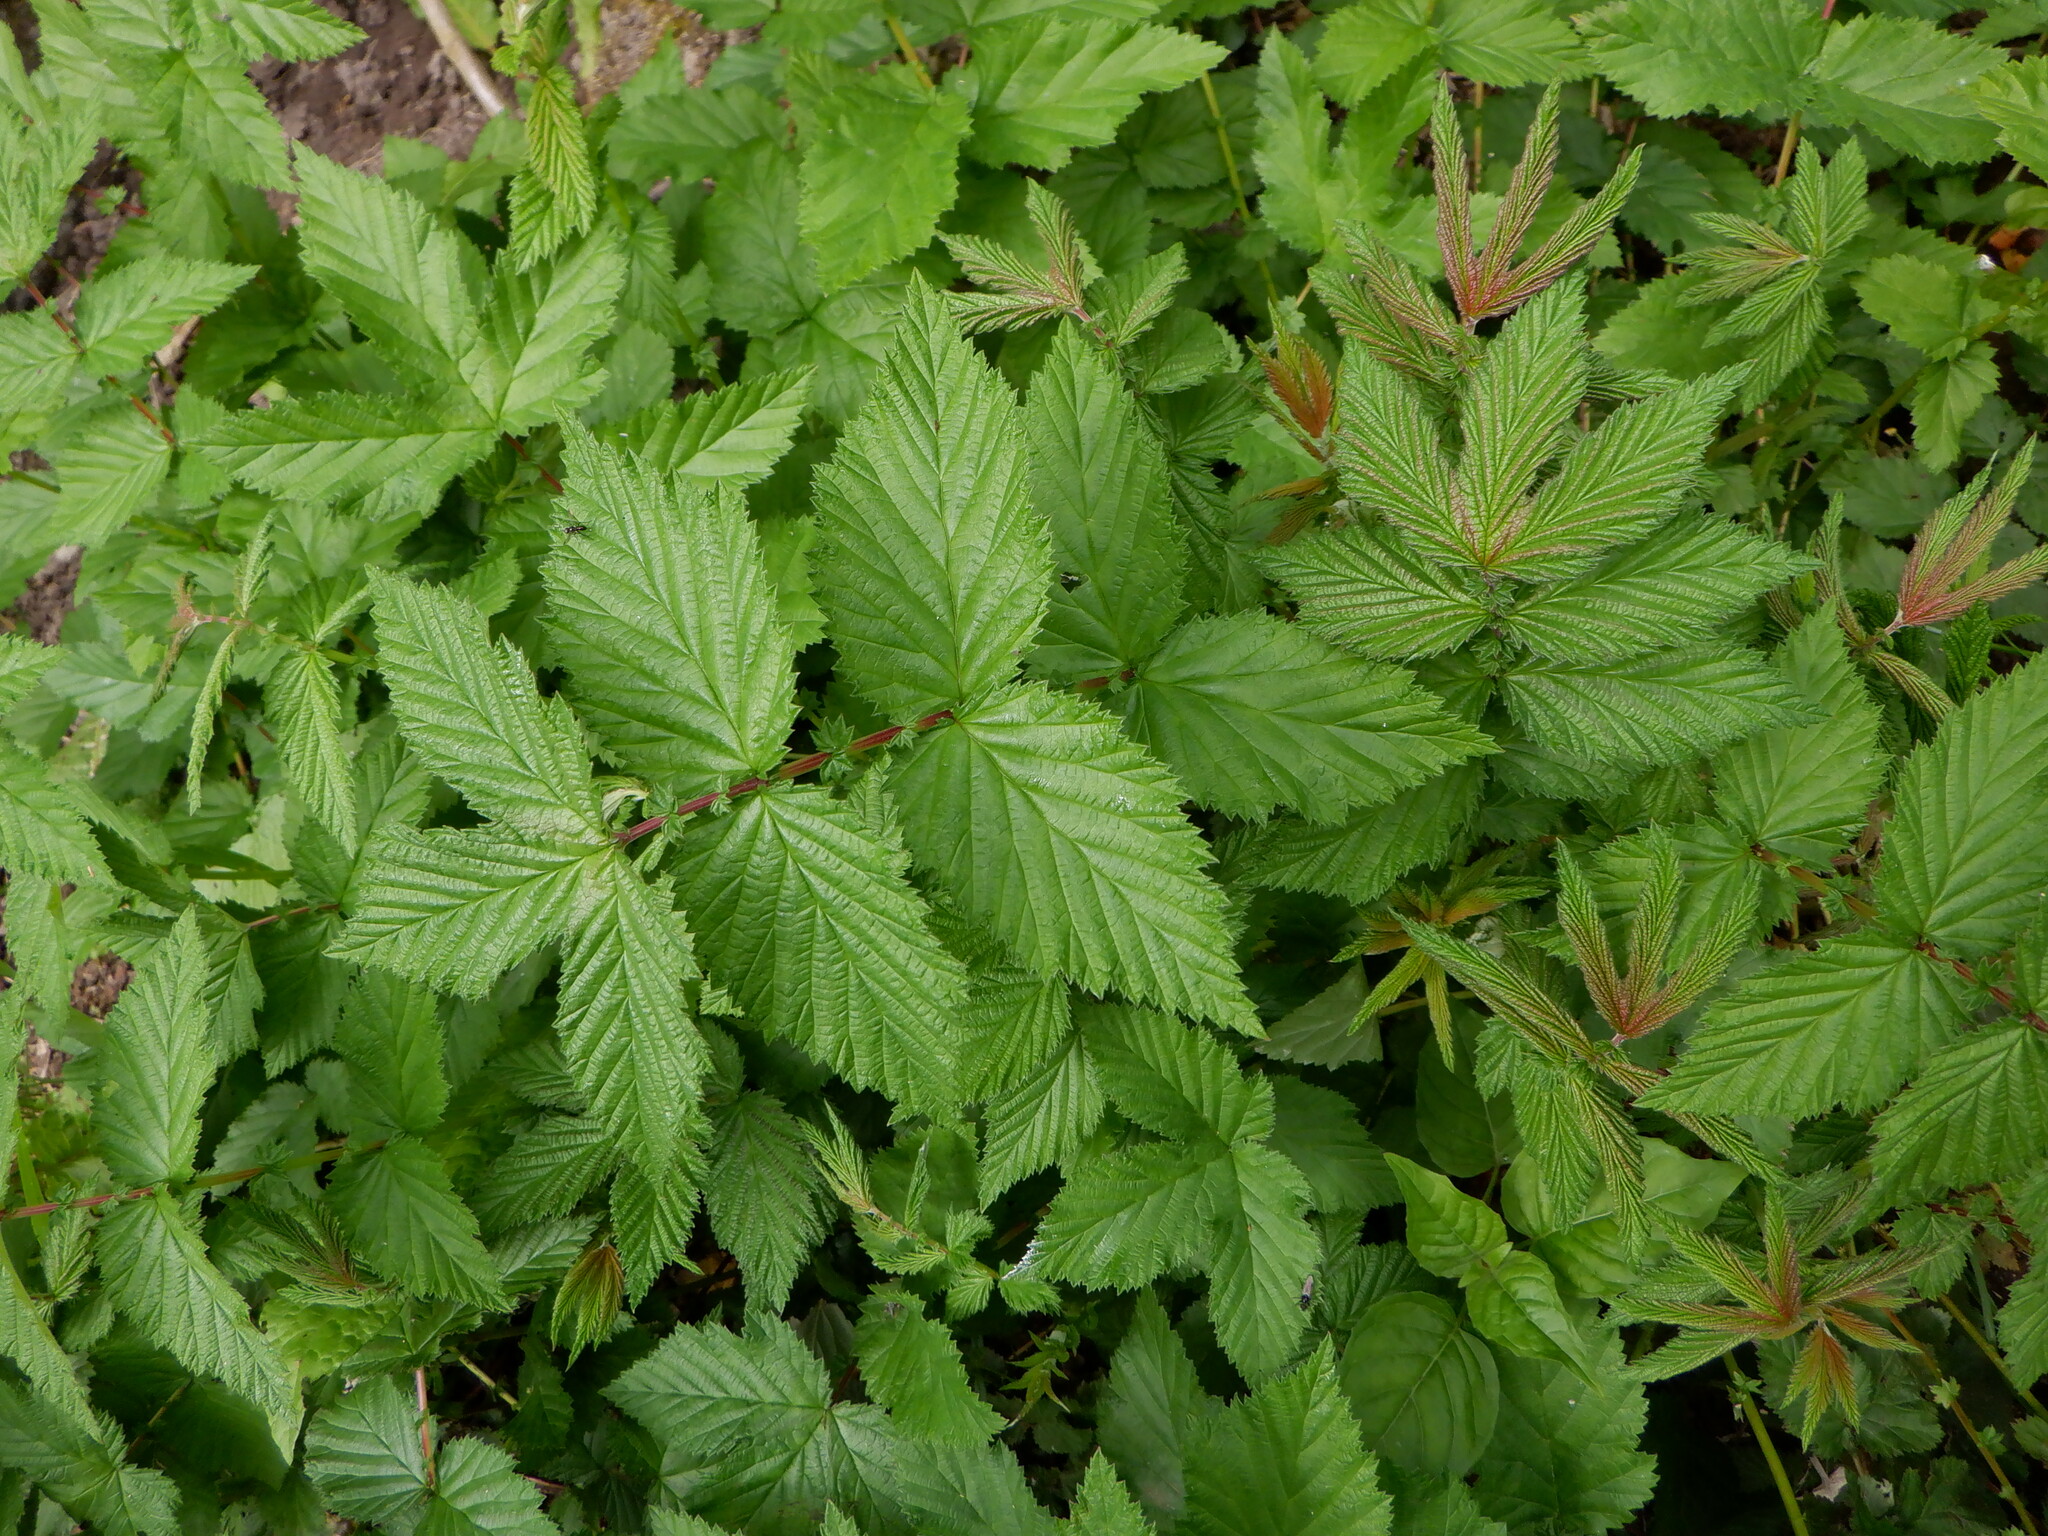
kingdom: Plantae
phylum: Tracheophyta
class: Magnoliopsida
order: Rosales
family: Rosaceae
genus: Filipendula
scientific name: Filipendula ulmaria
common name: Meadowsweet
